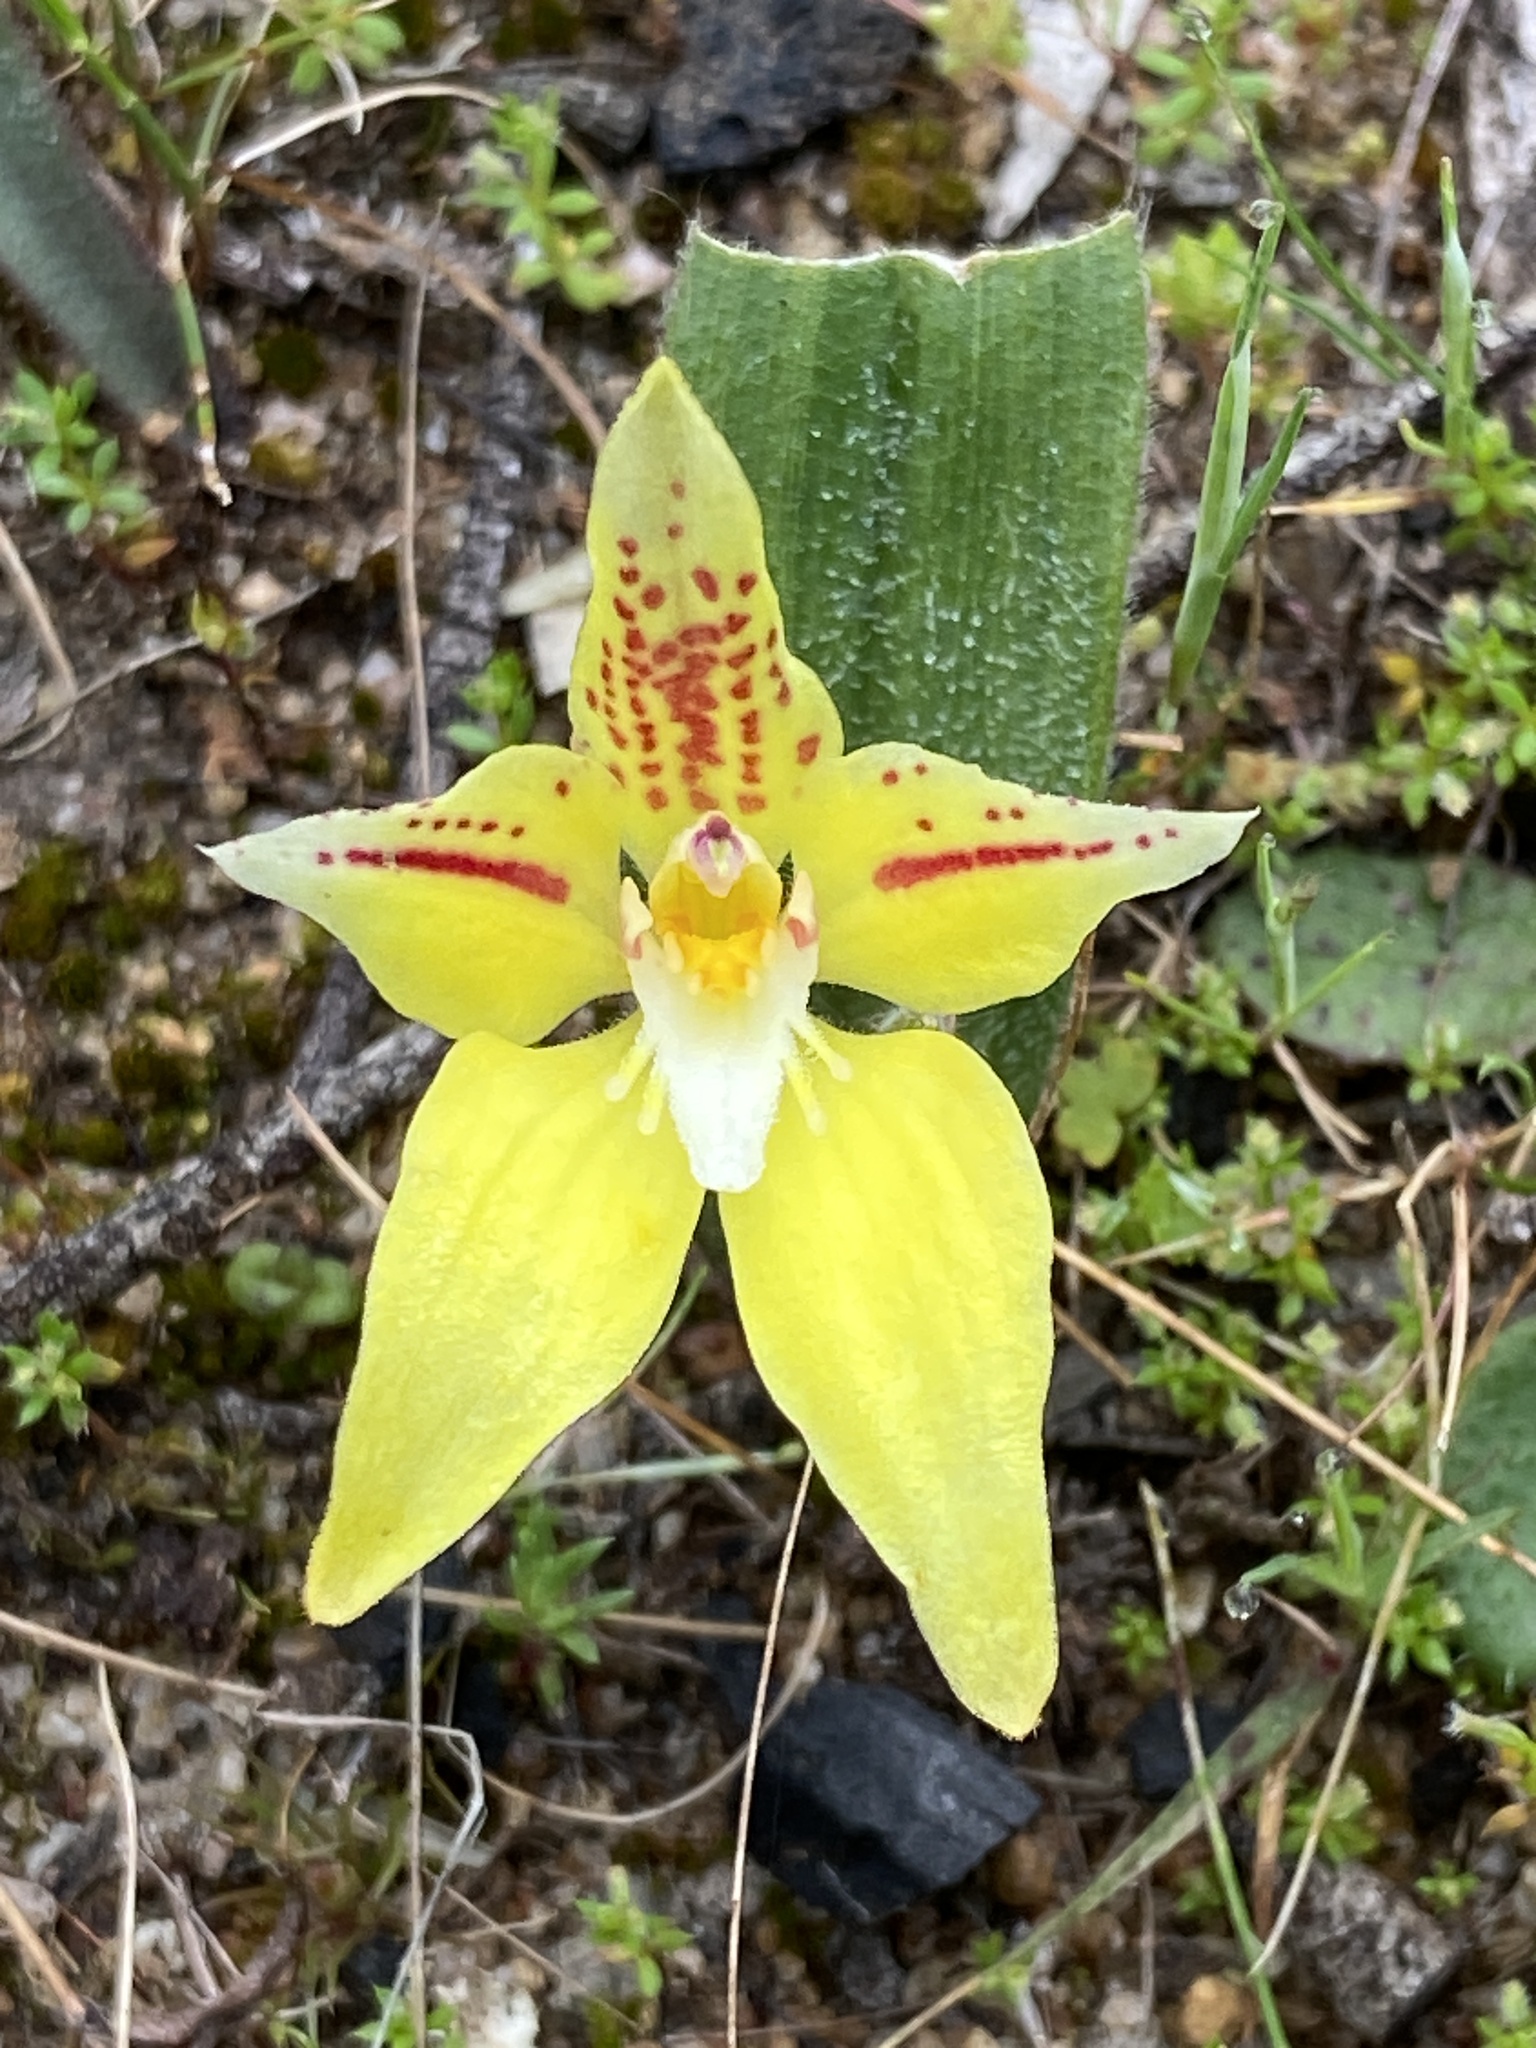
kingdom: Plantae
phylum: Tracheophyta
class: Liliopsida
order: Asparagales
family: Orchidaceae
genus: Caladenia
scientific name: Caladenia flava
